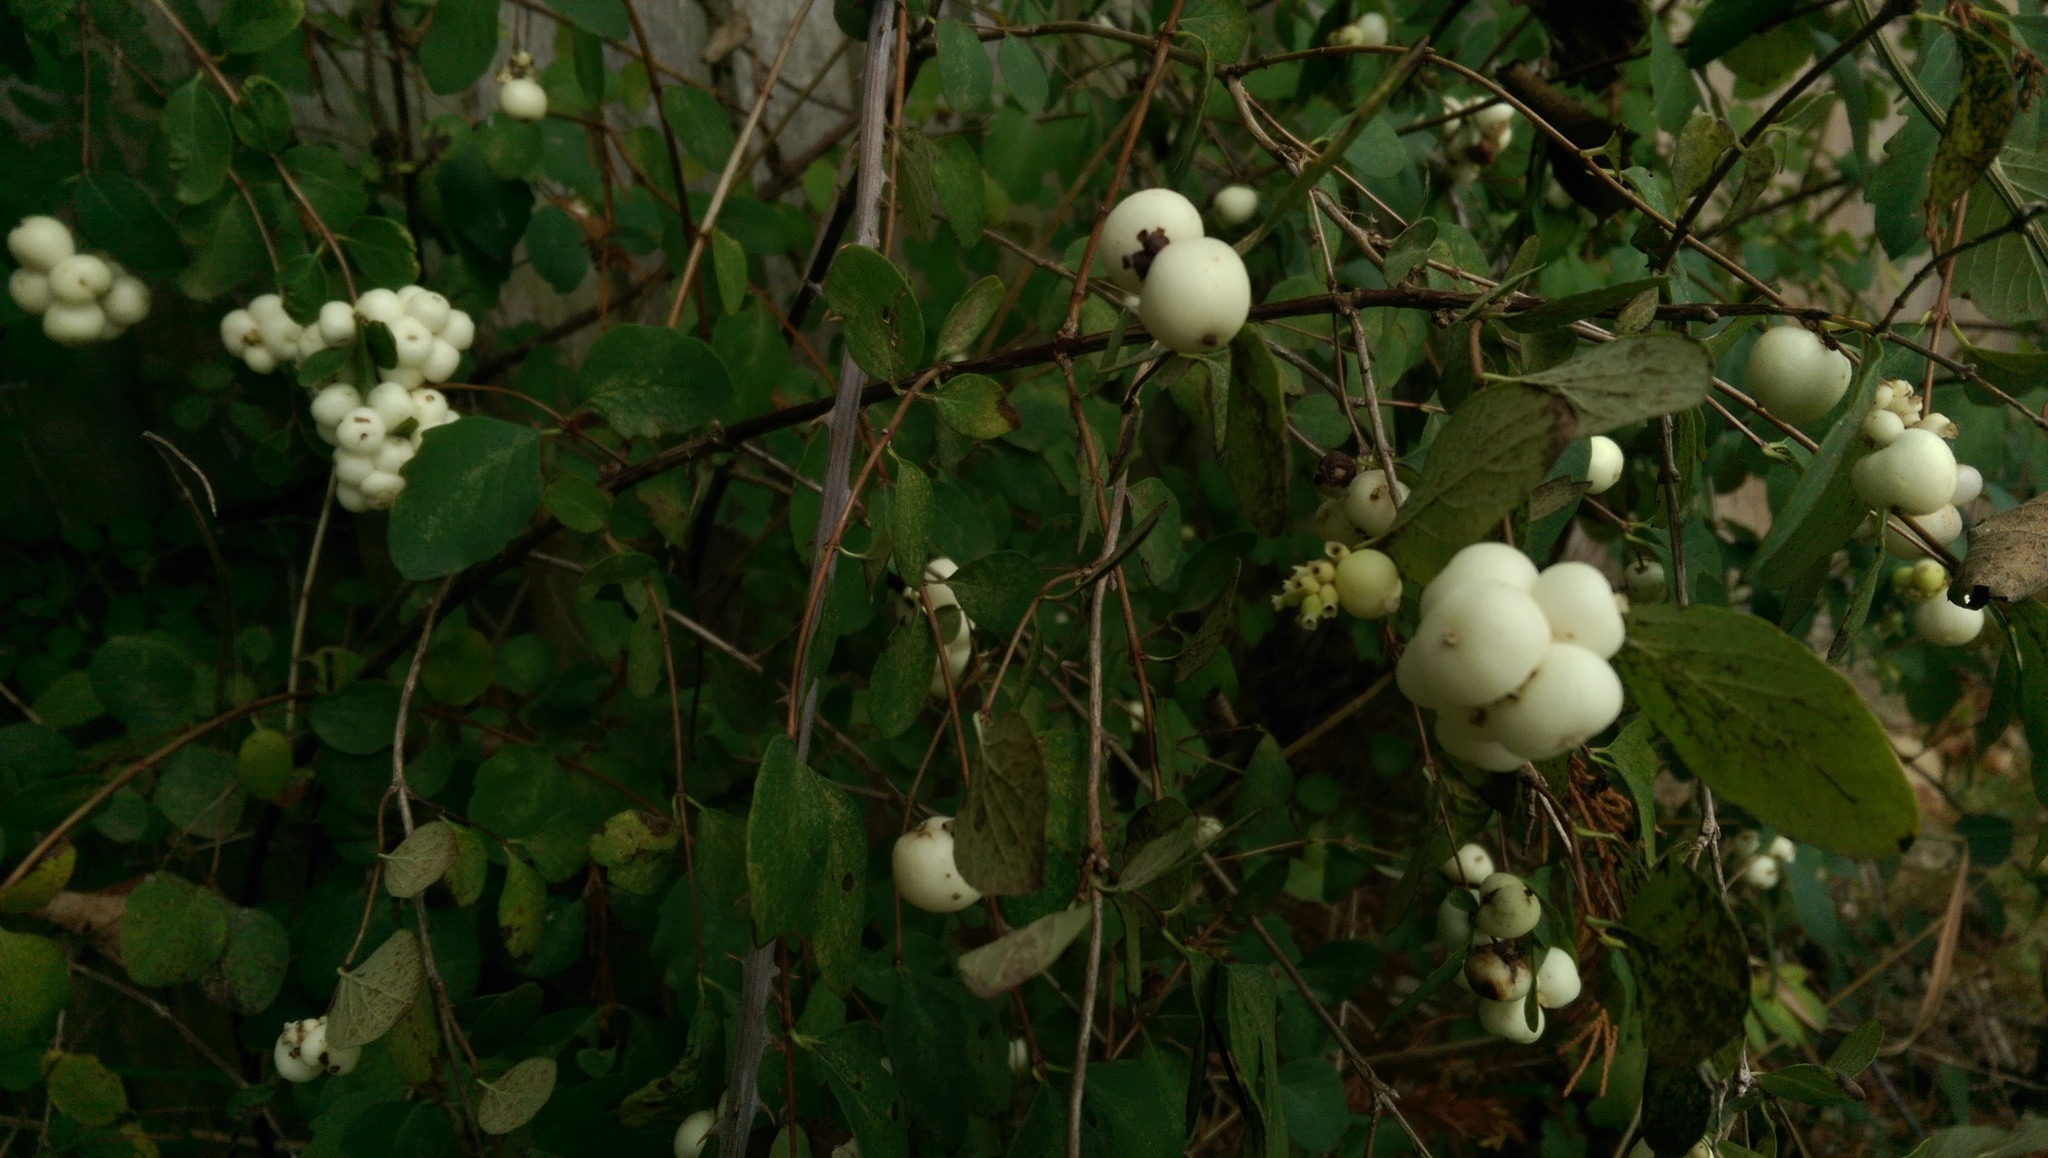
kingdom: Plantae
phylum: Tracheophyta
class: Magnoliopsida
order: Dipsacales
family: Caprifoliaceae
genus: Symphoricarpos
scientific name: Symphoricarpos albus
